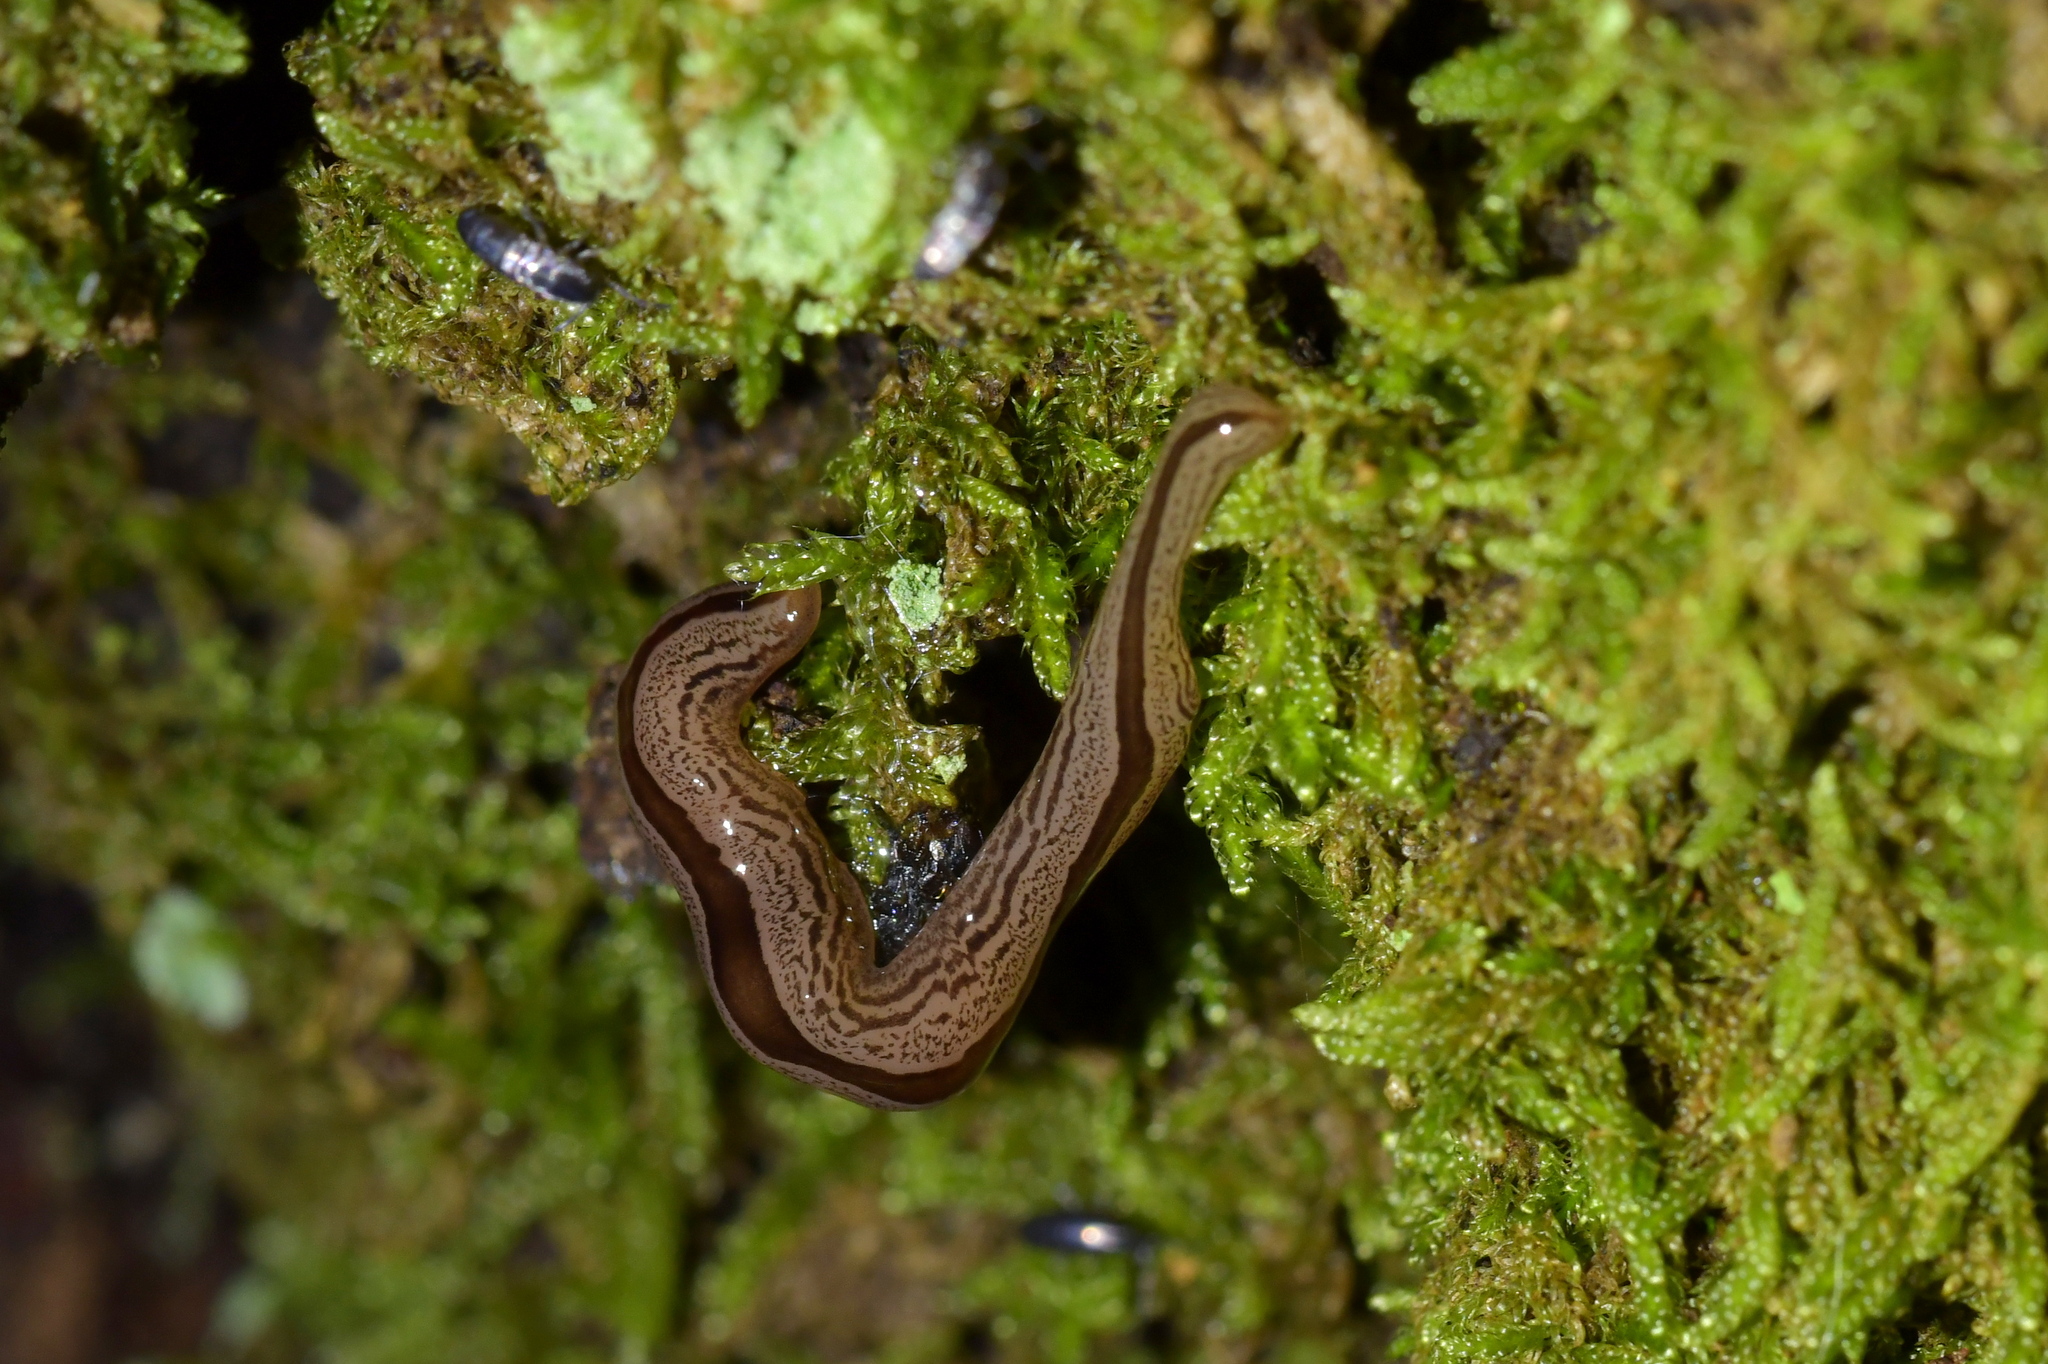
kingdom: Animalia
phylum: Platyhelminthes
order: Tricladida
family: Geoplanidae
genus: Artioposthia
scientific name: Artioposthia exulans
